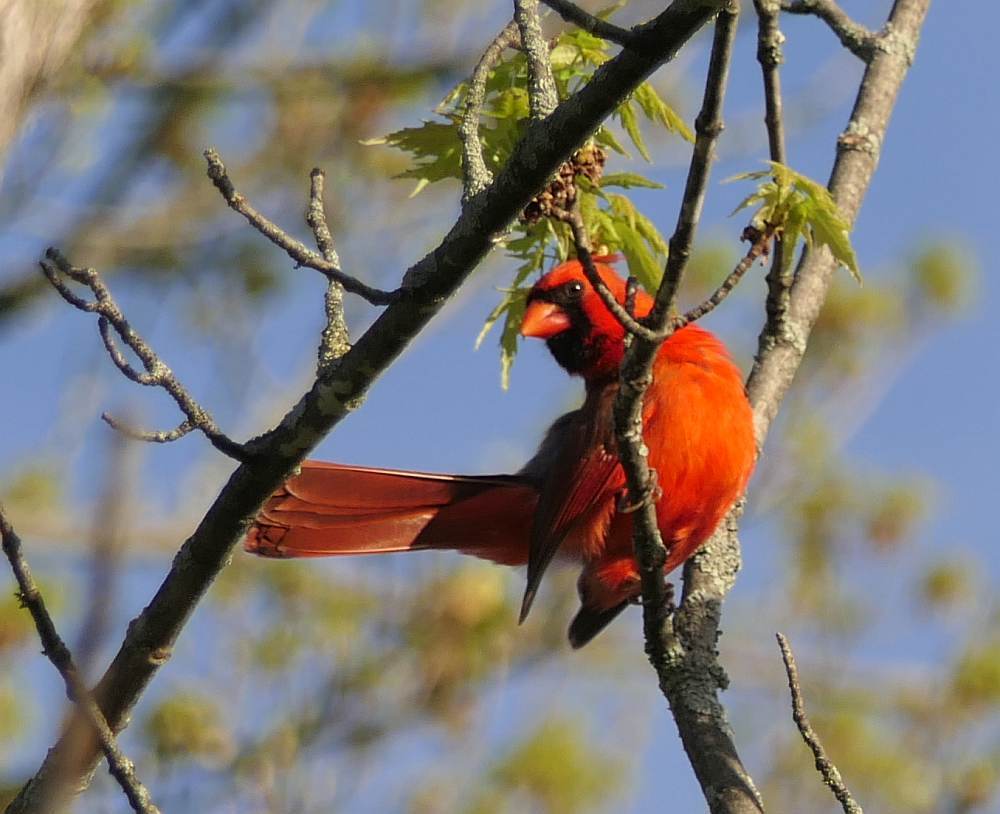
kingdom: Animalia
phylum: Chordata
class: Aves
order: Passeriformes
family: Cardinalidae
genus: Cardinalis
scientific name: Cardinalis cardinalis
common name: Northern cardinal
